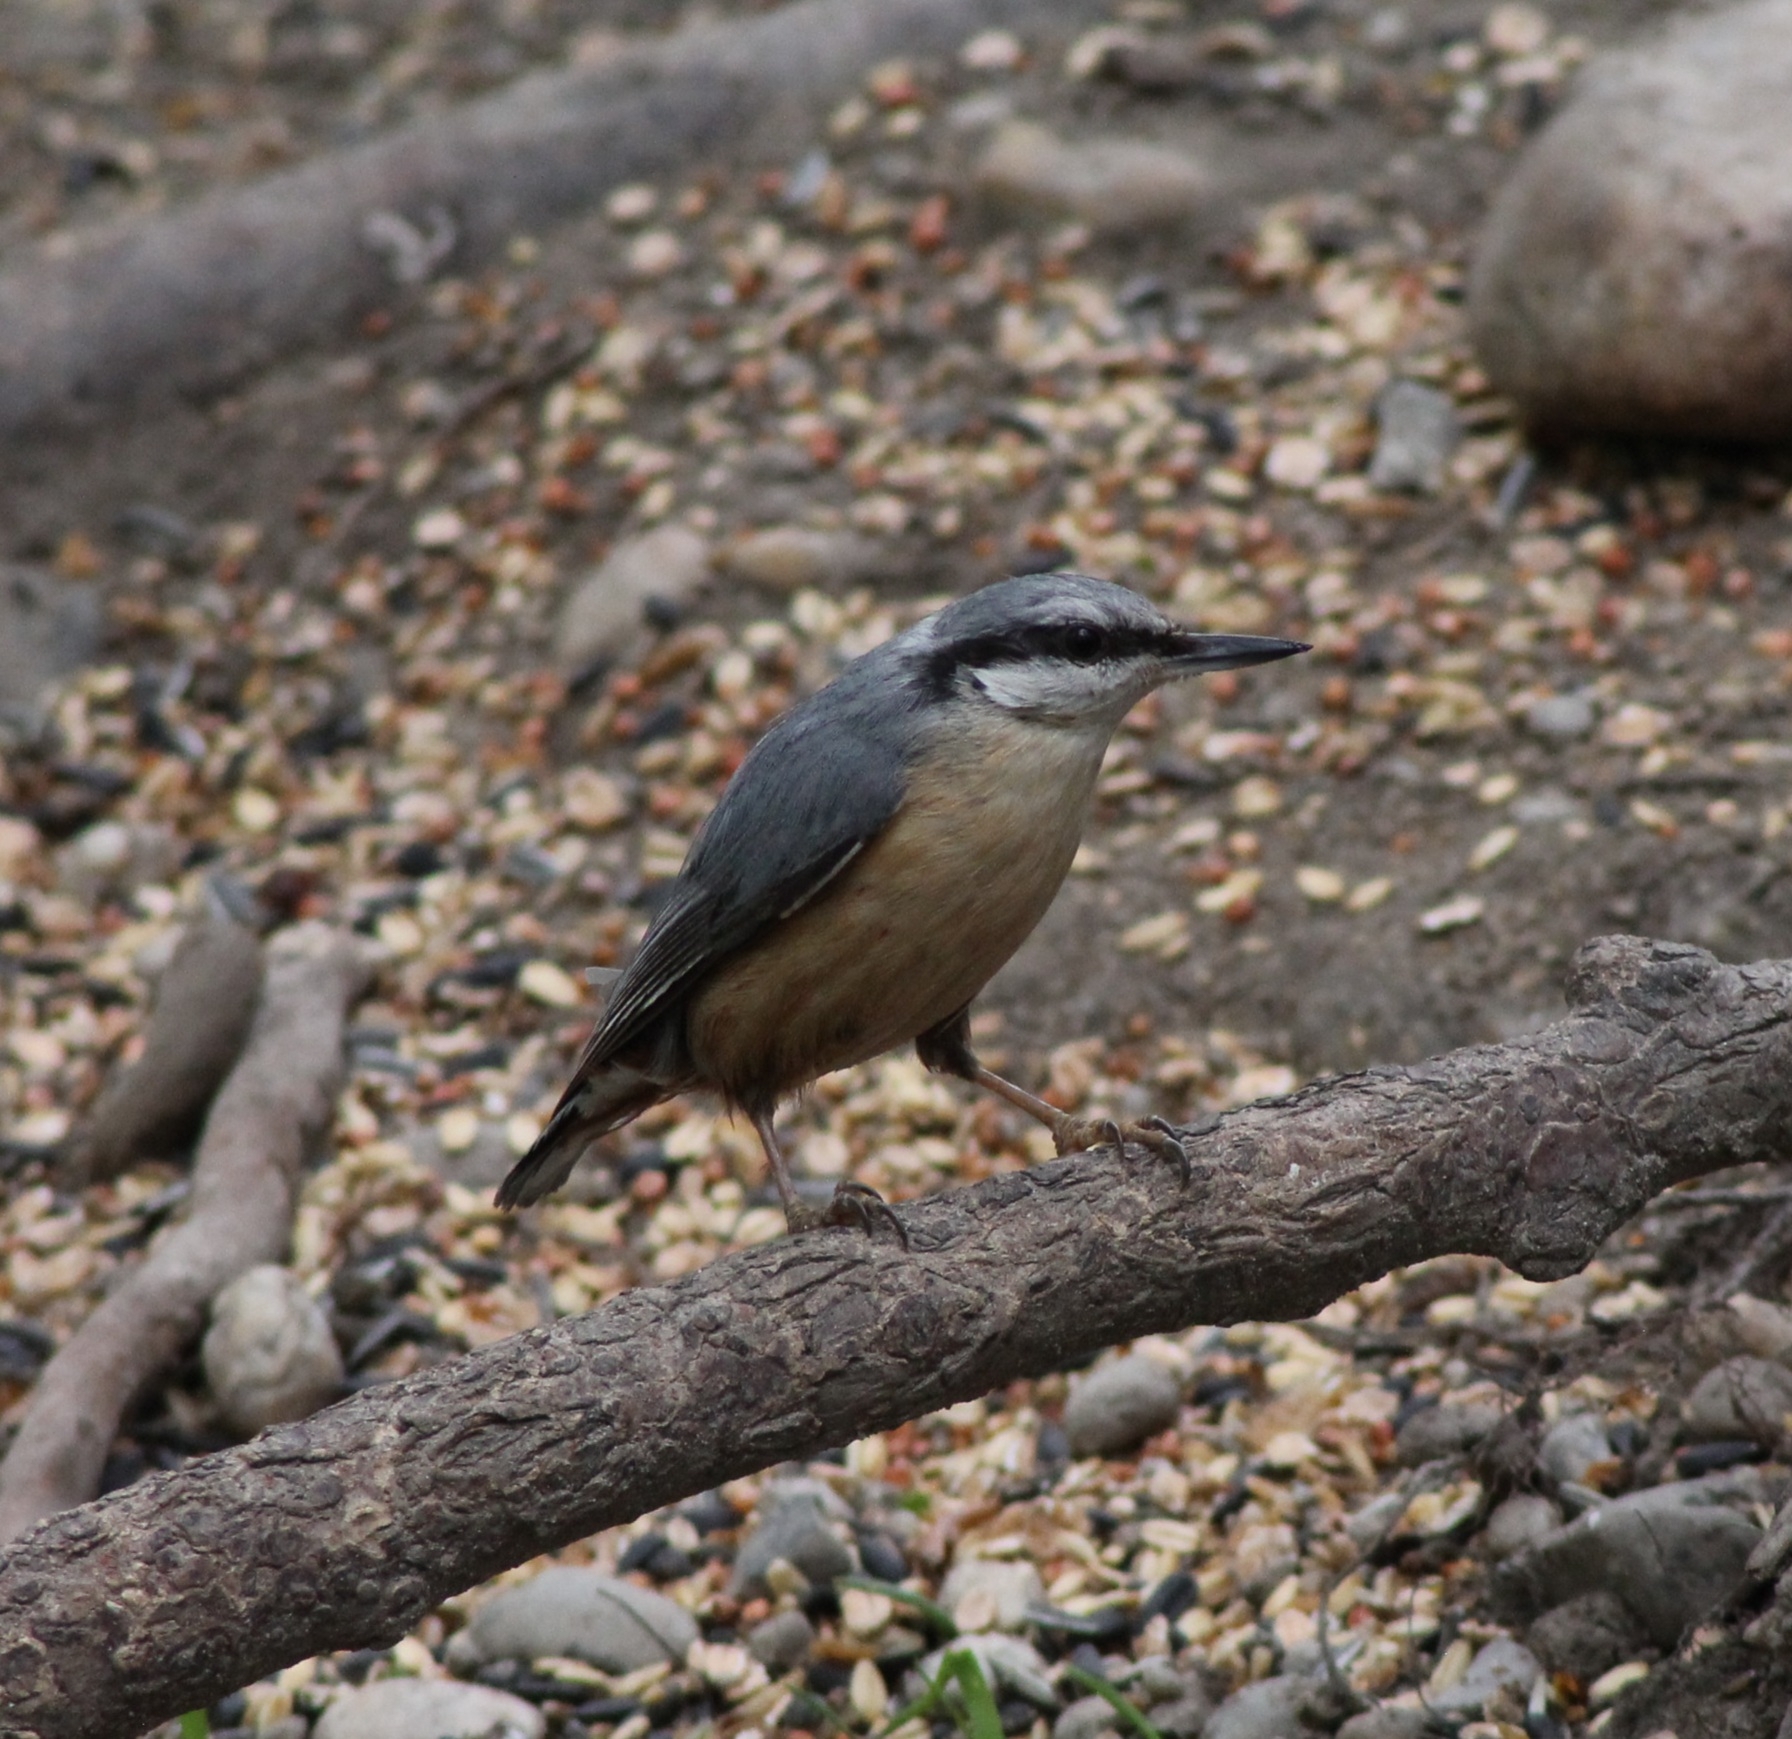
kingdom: Animalia
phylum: Chordata
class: Aves
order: Passeriformes
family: Sittidae
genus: Sitta
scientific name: Sitta europaea
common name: Eurasian nuthatch
